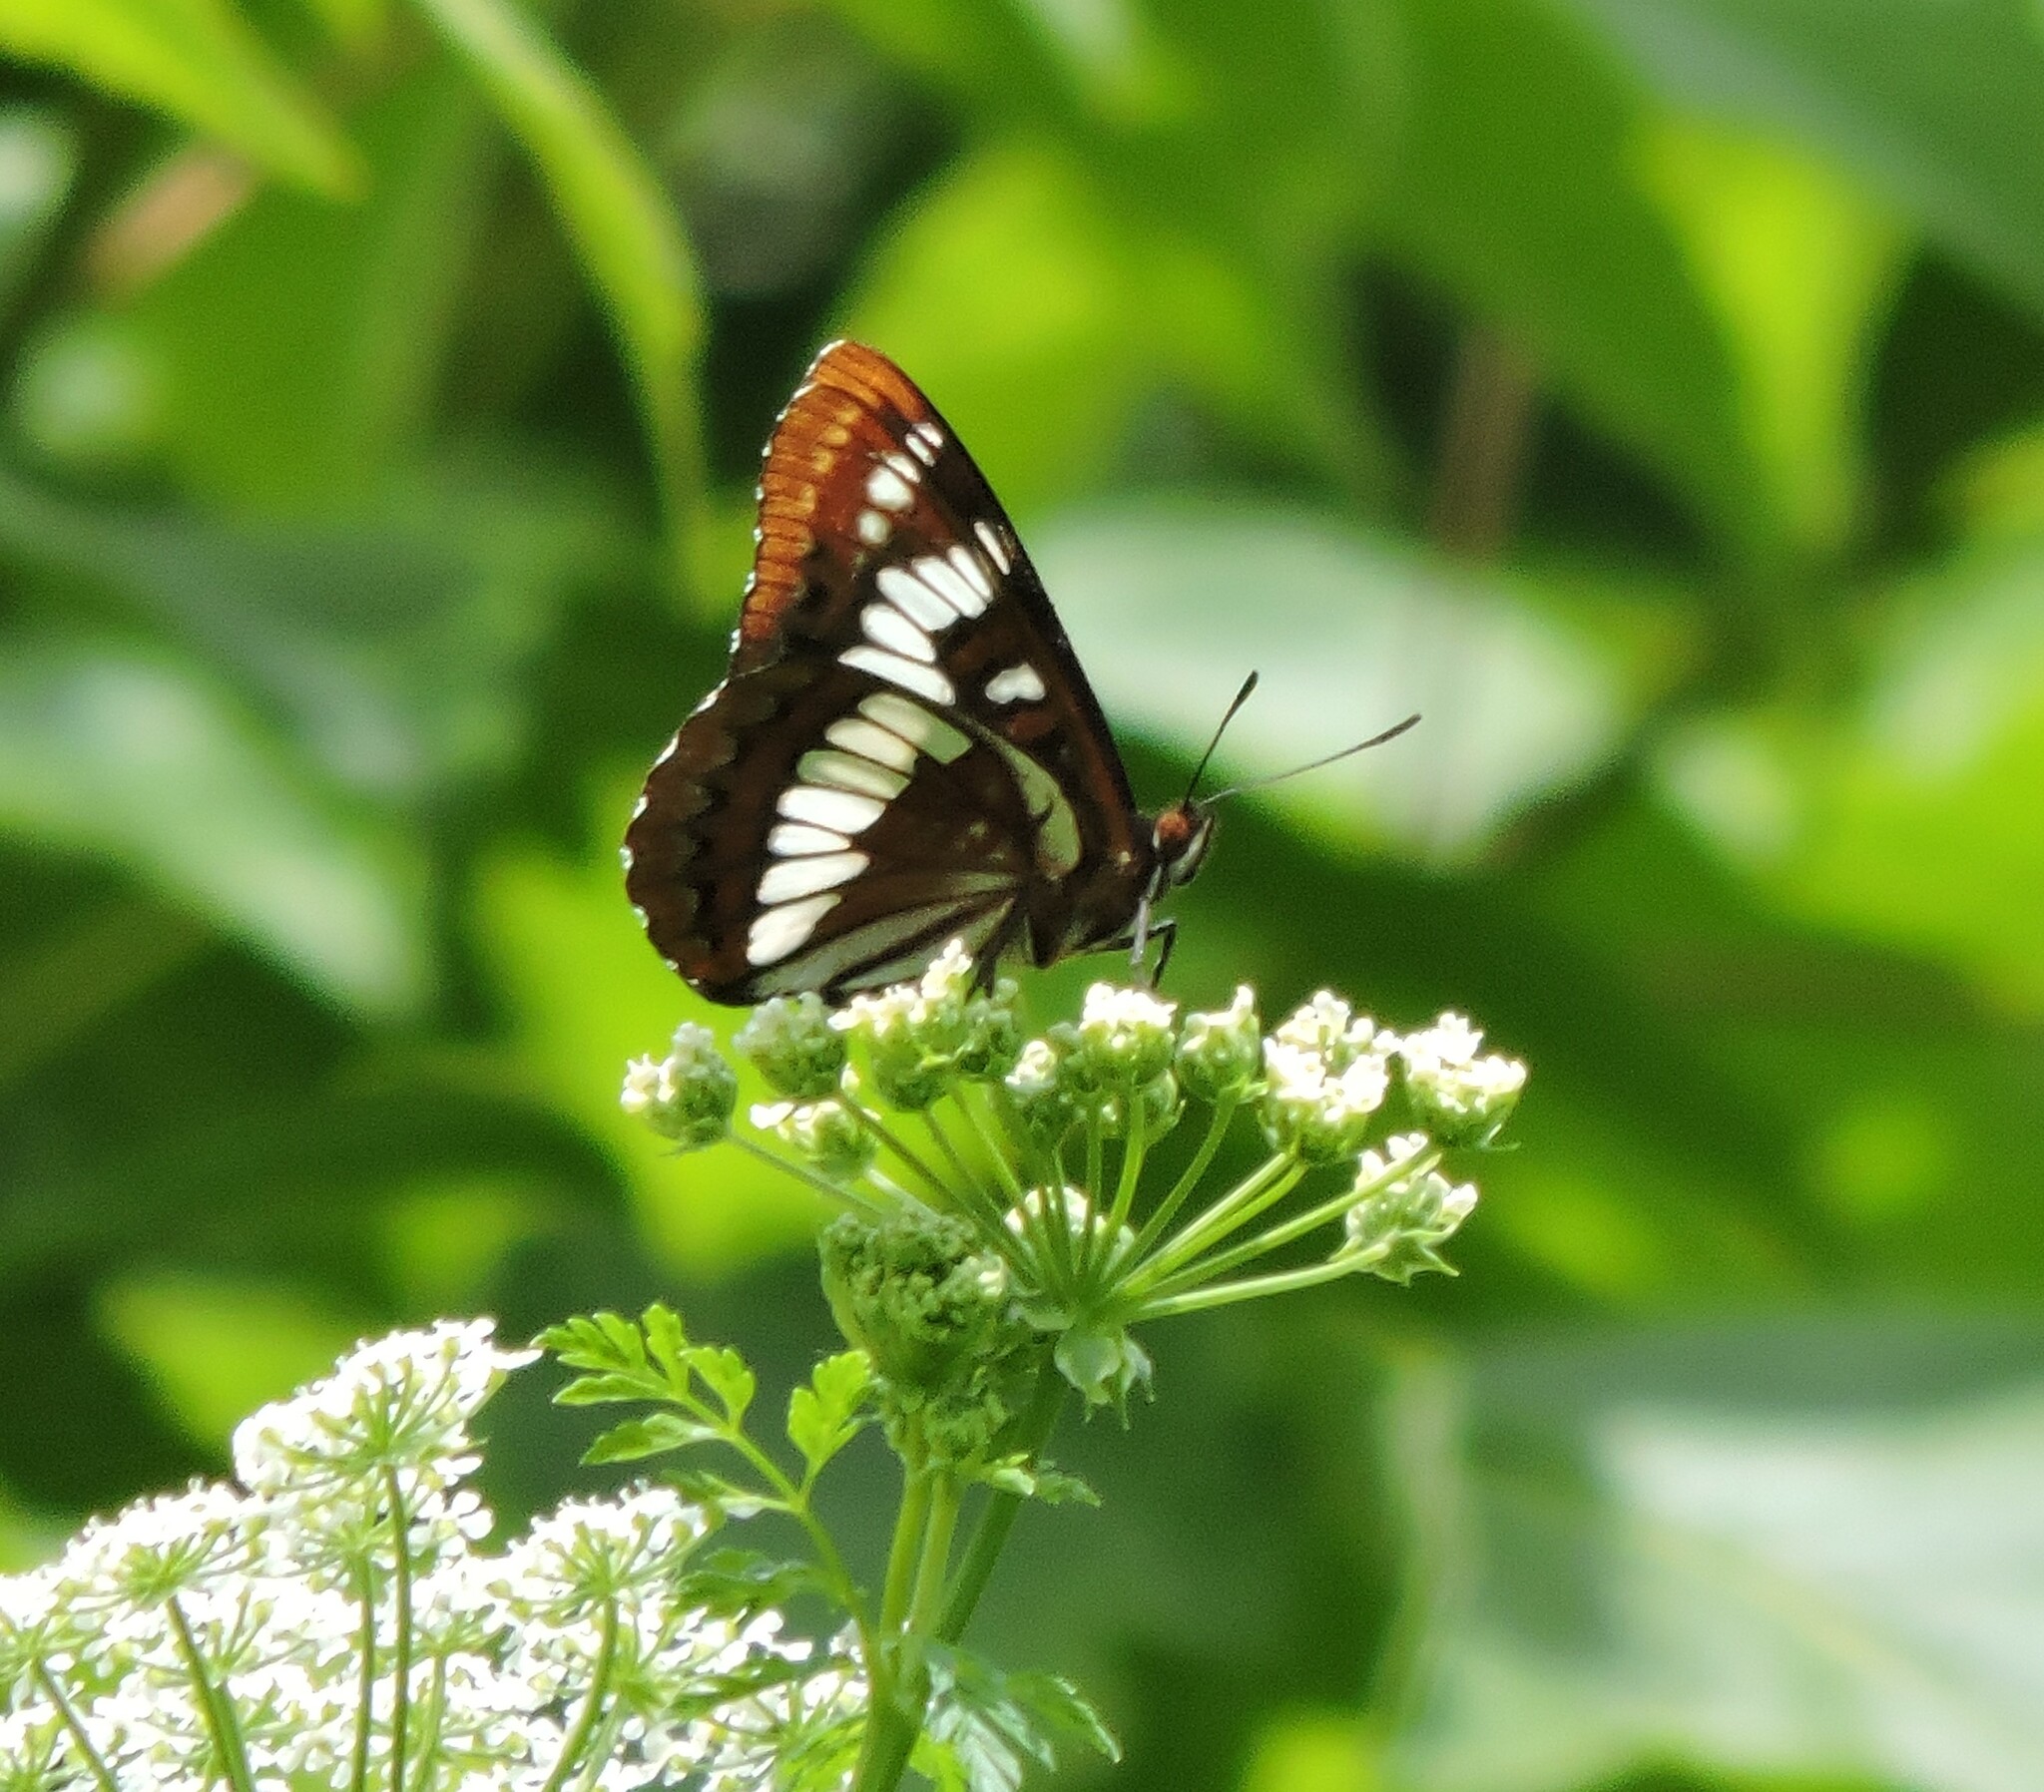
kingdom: Animalia
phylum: Arthropoda
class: Insecta
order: Lepidoptera
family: Nymphalidae
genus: Limenitis
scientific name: Limenitis lorquini
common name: Lorquin's admiral
